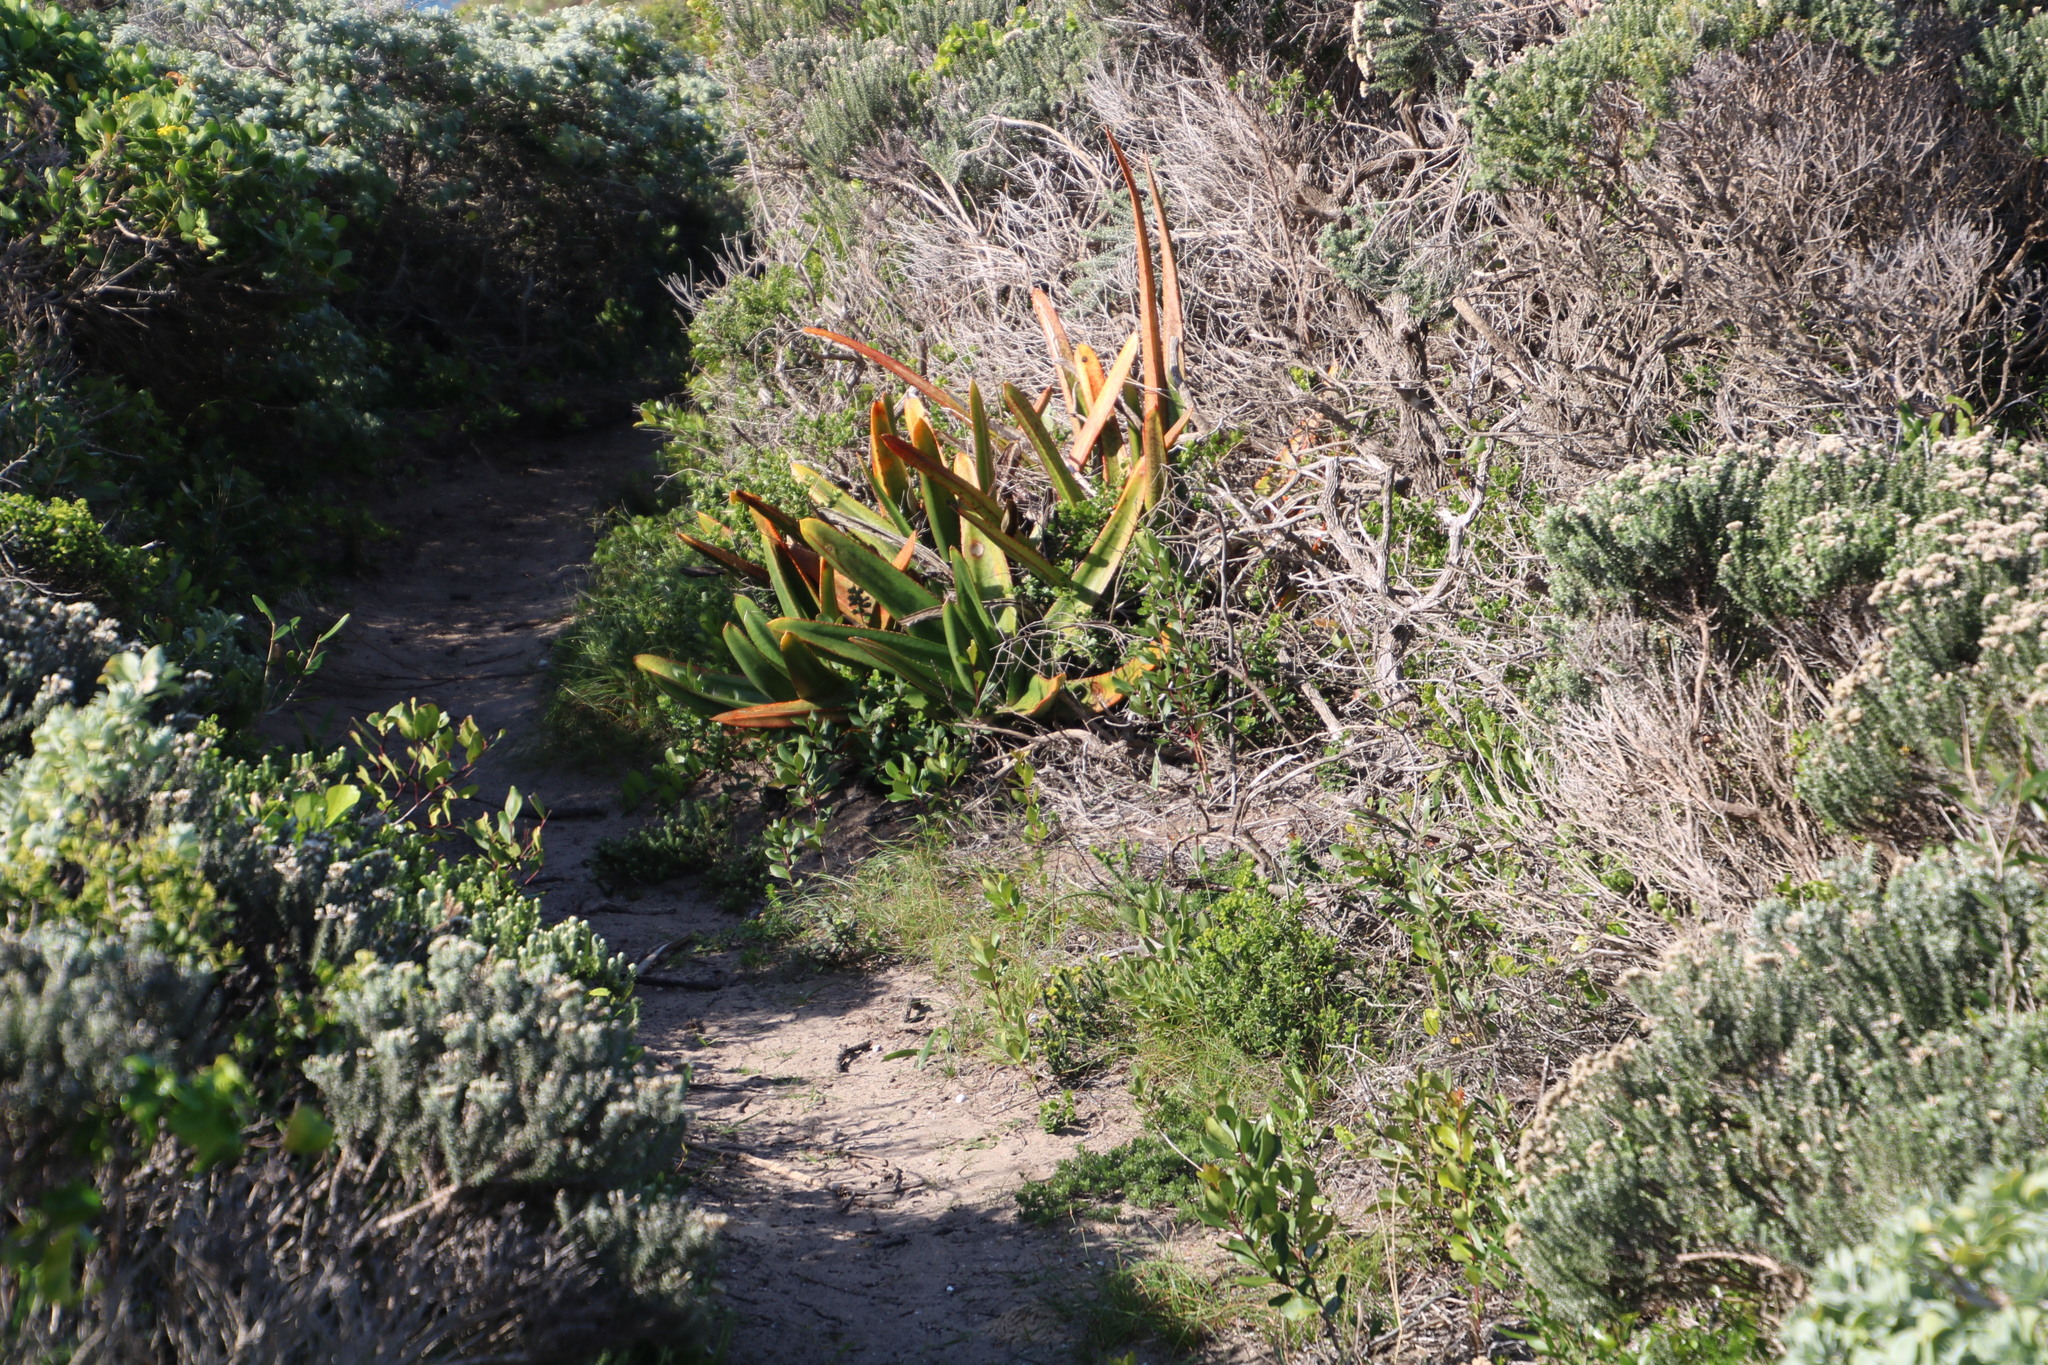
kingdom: Plantae
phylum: Tracheophyta
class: Liliopsida
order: Asparagales
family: Asphodelaceae
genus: Gasteria
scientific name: Gasteria acinacifolia
